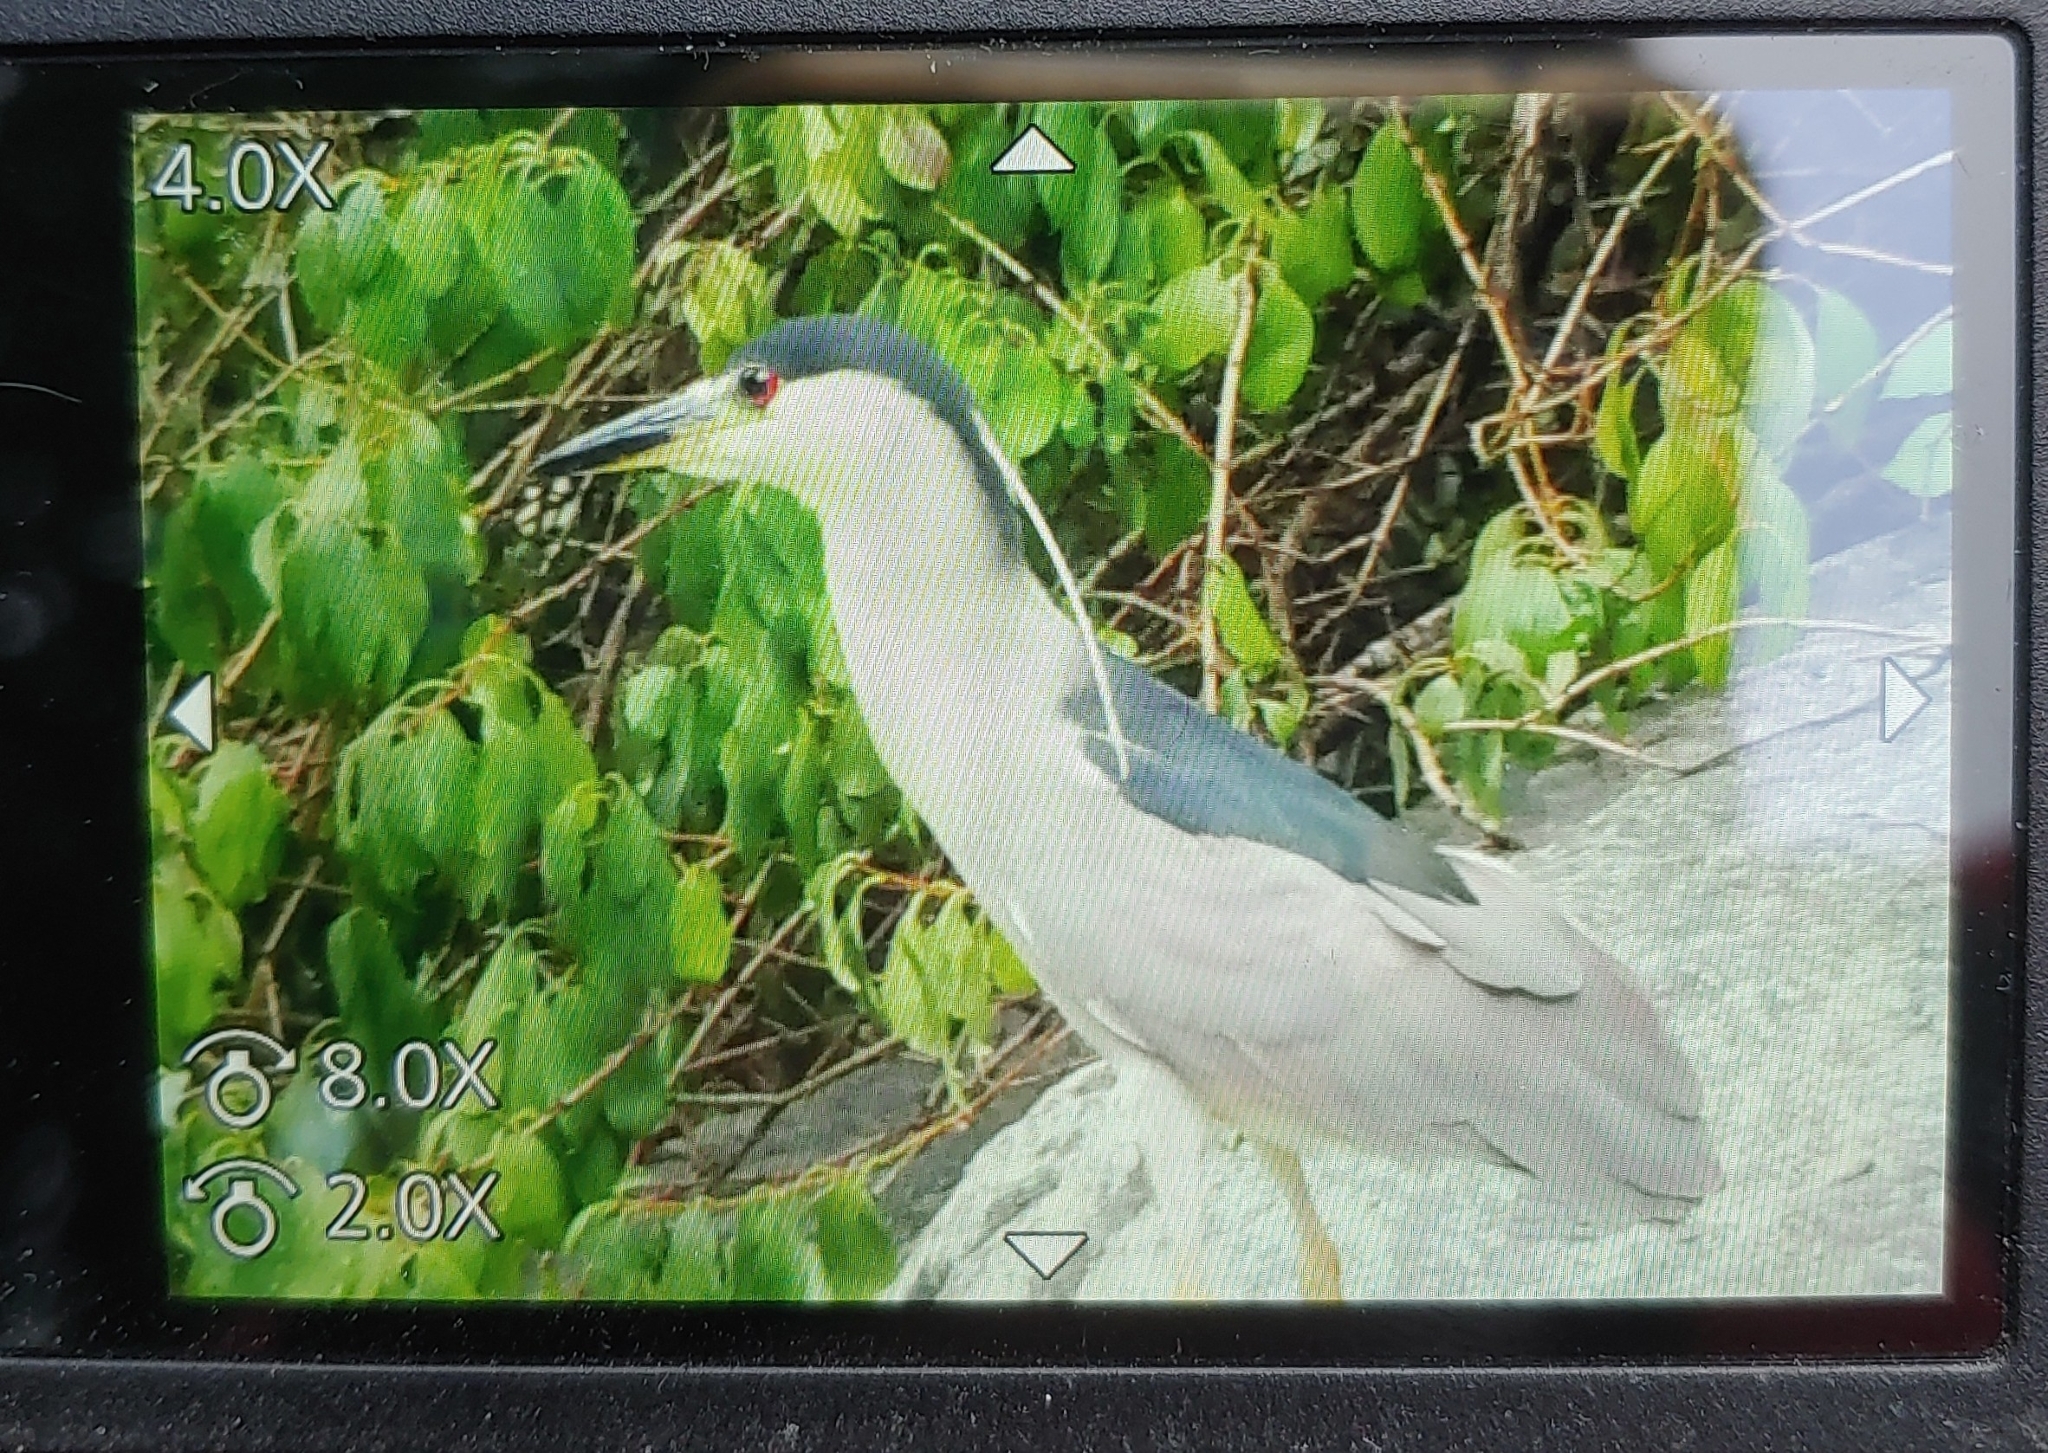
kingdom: Animalia
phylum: Chordata
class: Aves
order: Pelecaniformes
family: Ardeidae
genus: Nycticorax
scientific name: Nycticorax nycticorax
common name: Black-crowned night heron
